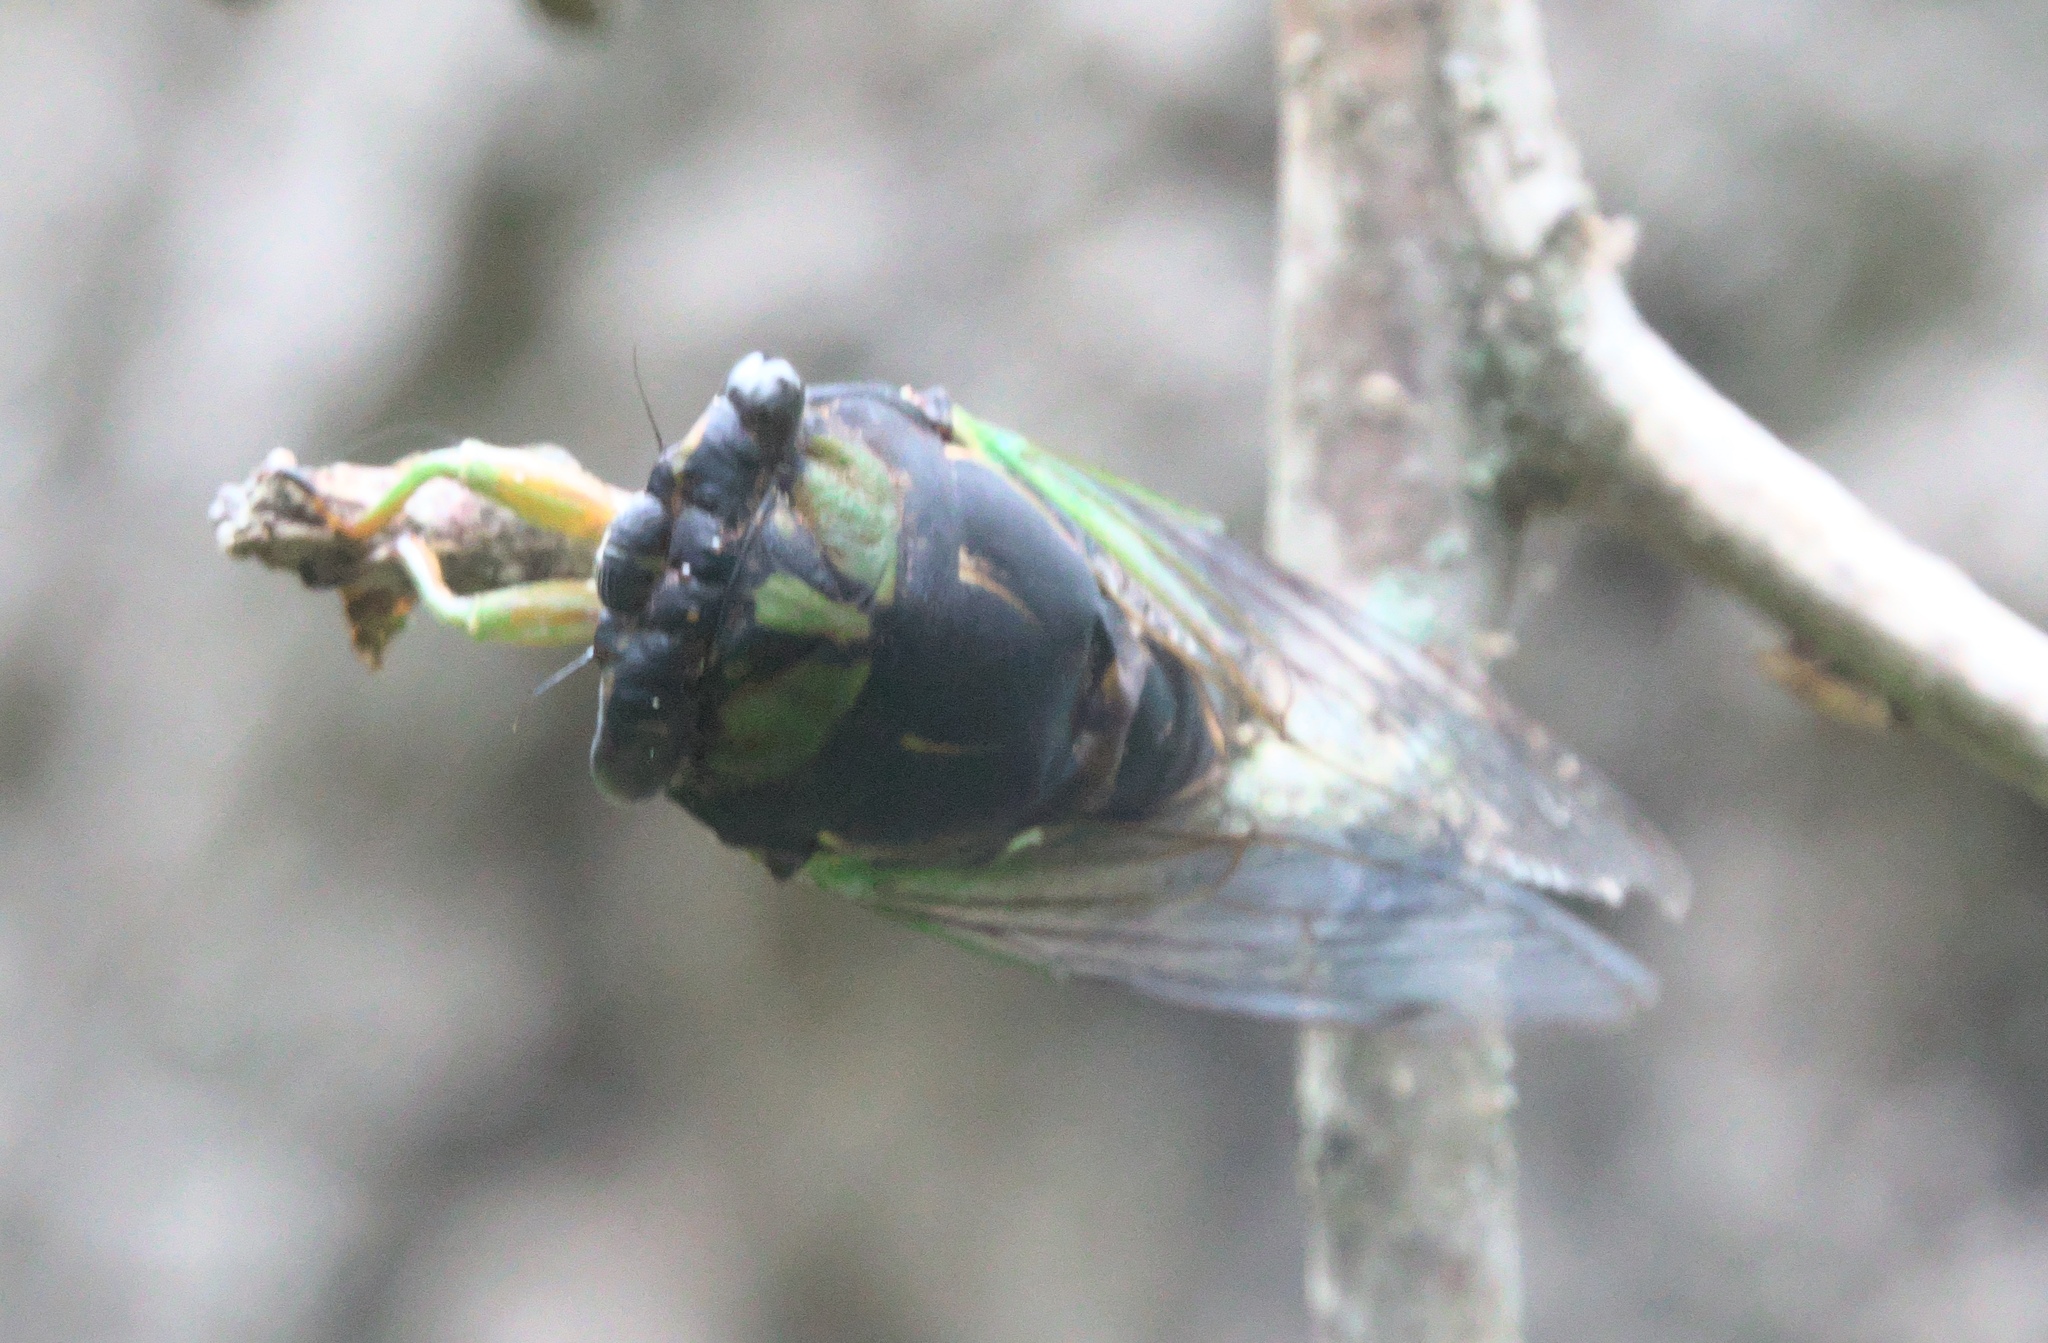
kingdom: Animalia
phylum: Arthropoda
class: Insecta
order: Hemiptera
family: Cicadidae
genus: Neotibicen
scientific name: Neotibicen tibicen
